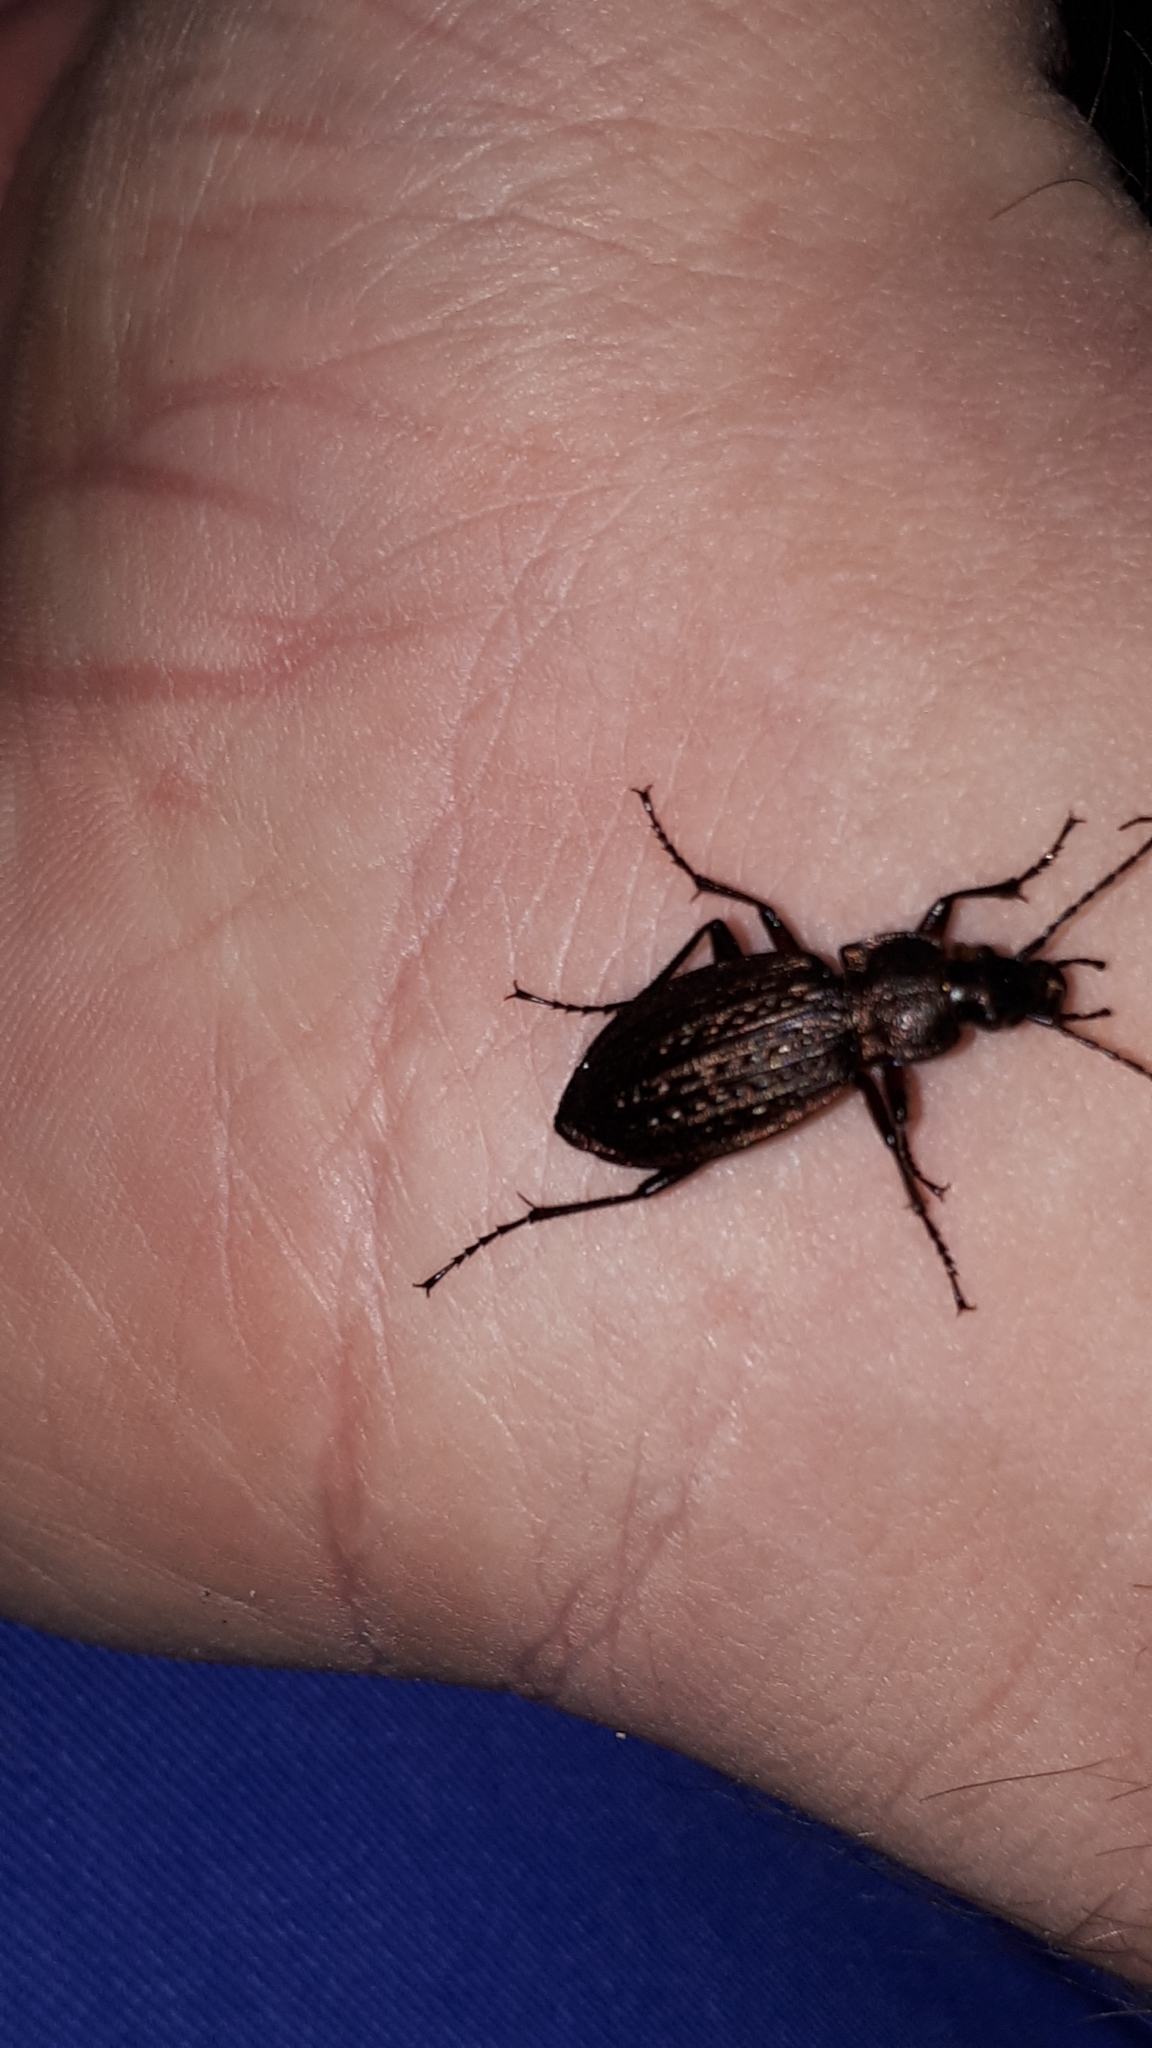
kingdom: Animalia
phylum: Arthropoda
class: Insecta
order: Coleoptera
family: Carabidae
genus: Carabus
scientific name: Carabus granulatus
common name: Granulate ground beetle
